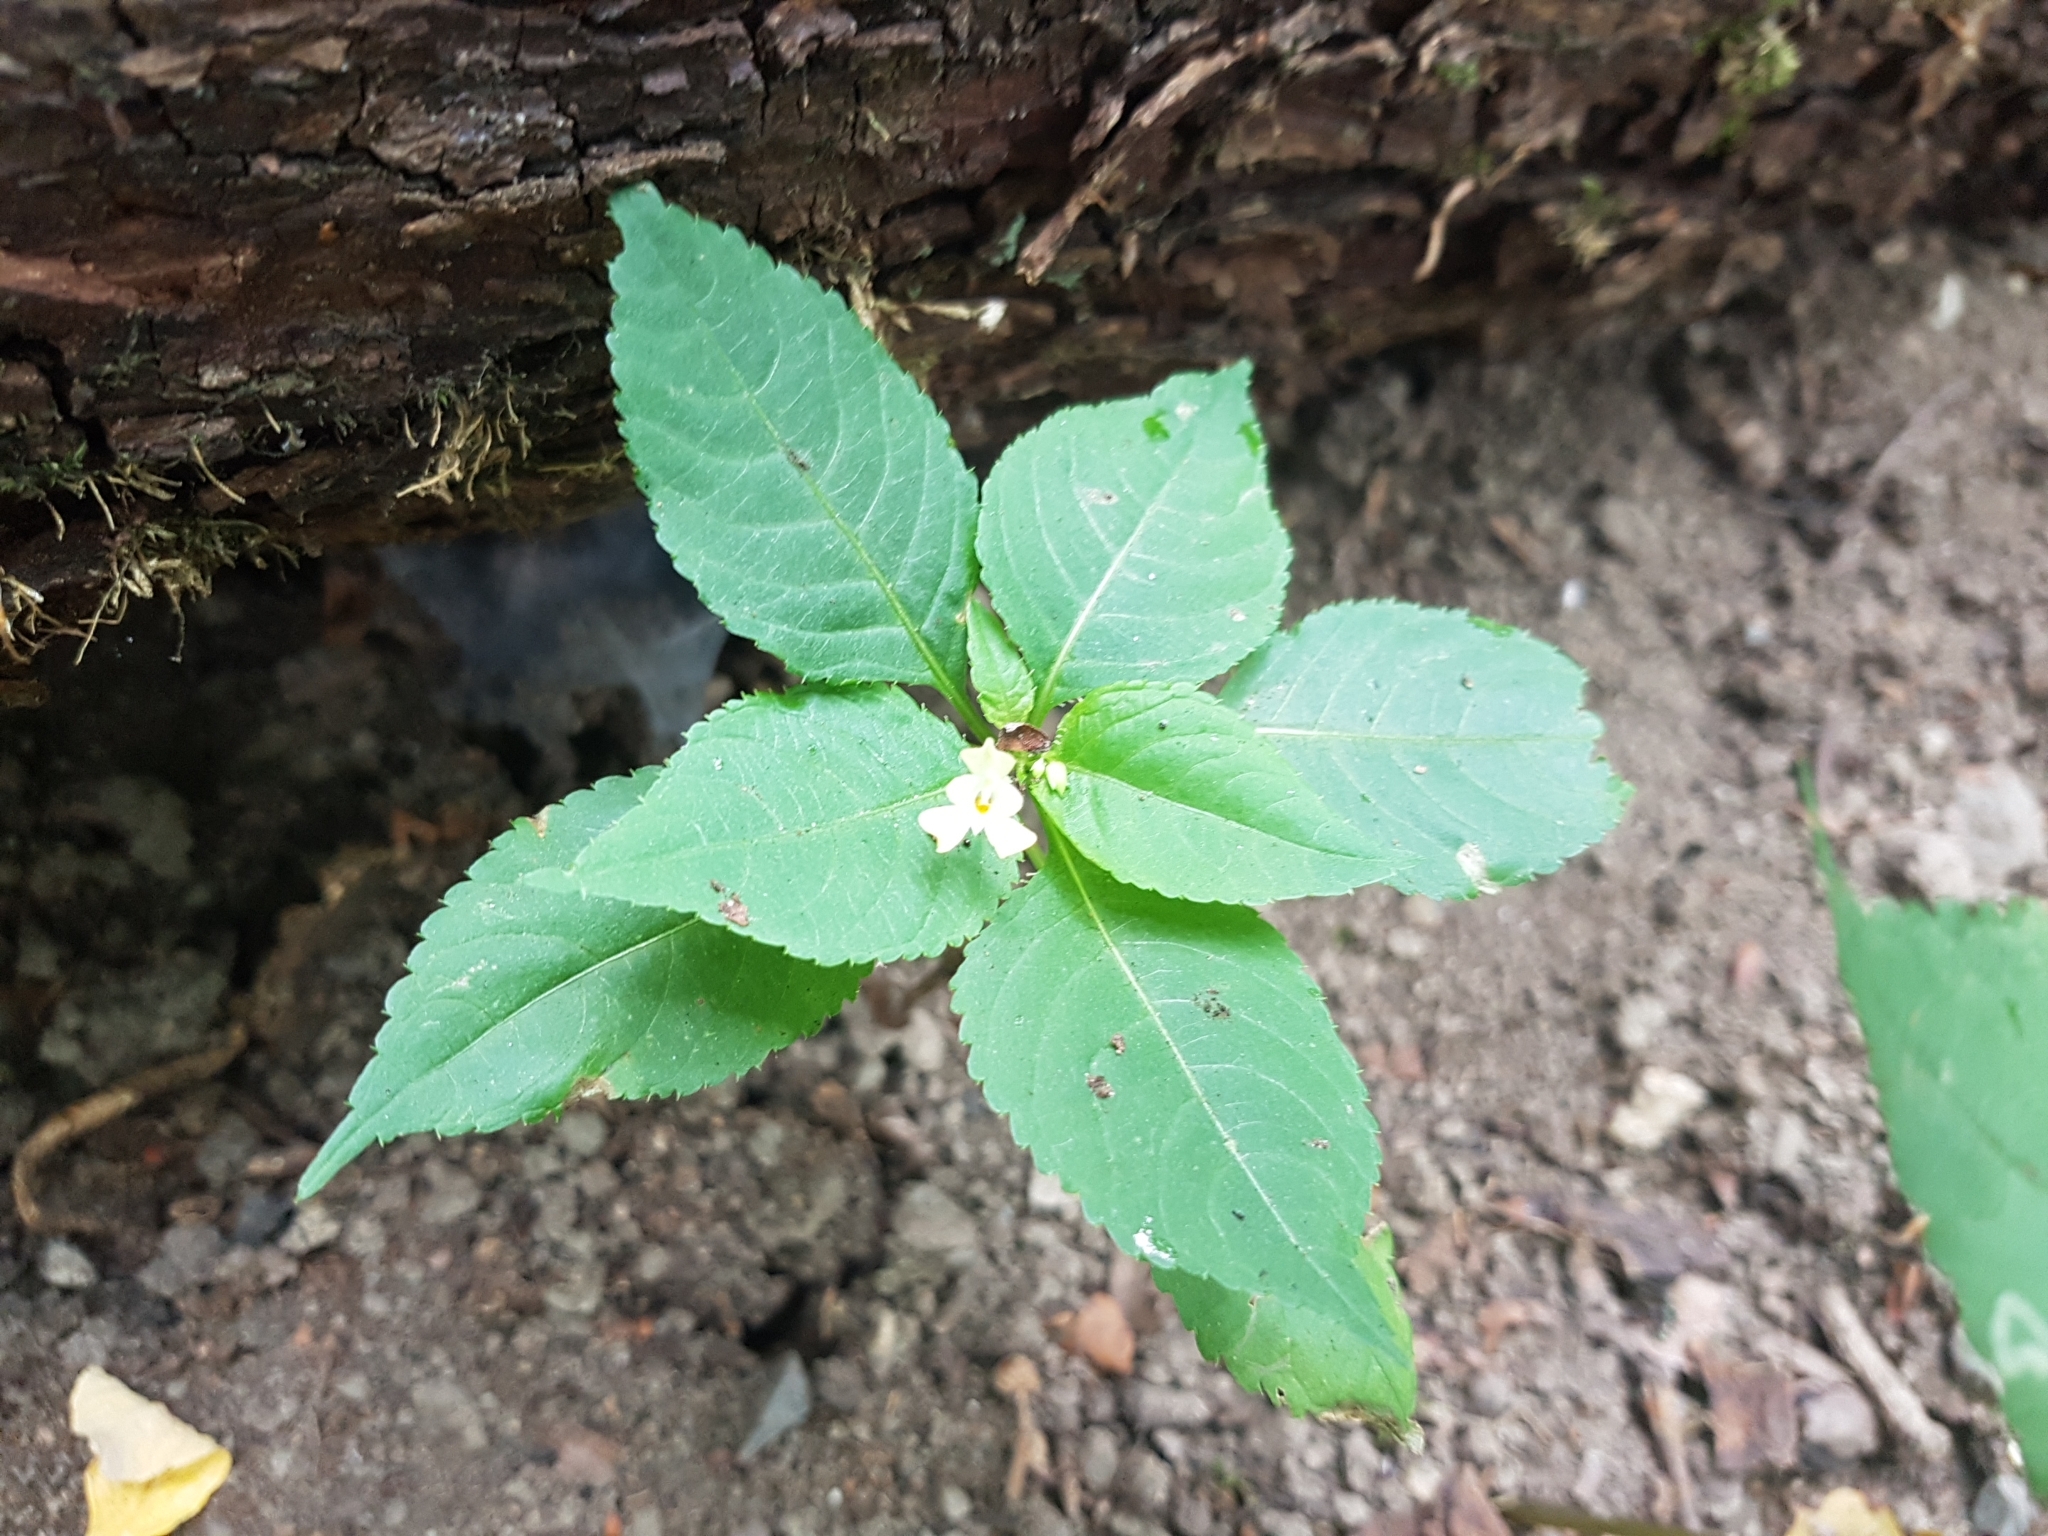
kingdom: Plantae
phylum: Tracheophyta
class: Magnoliopsida
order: Ericales
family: Balsaminaceae
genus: Impatiens
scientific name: Impatiens parviflora
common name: Small balsam
